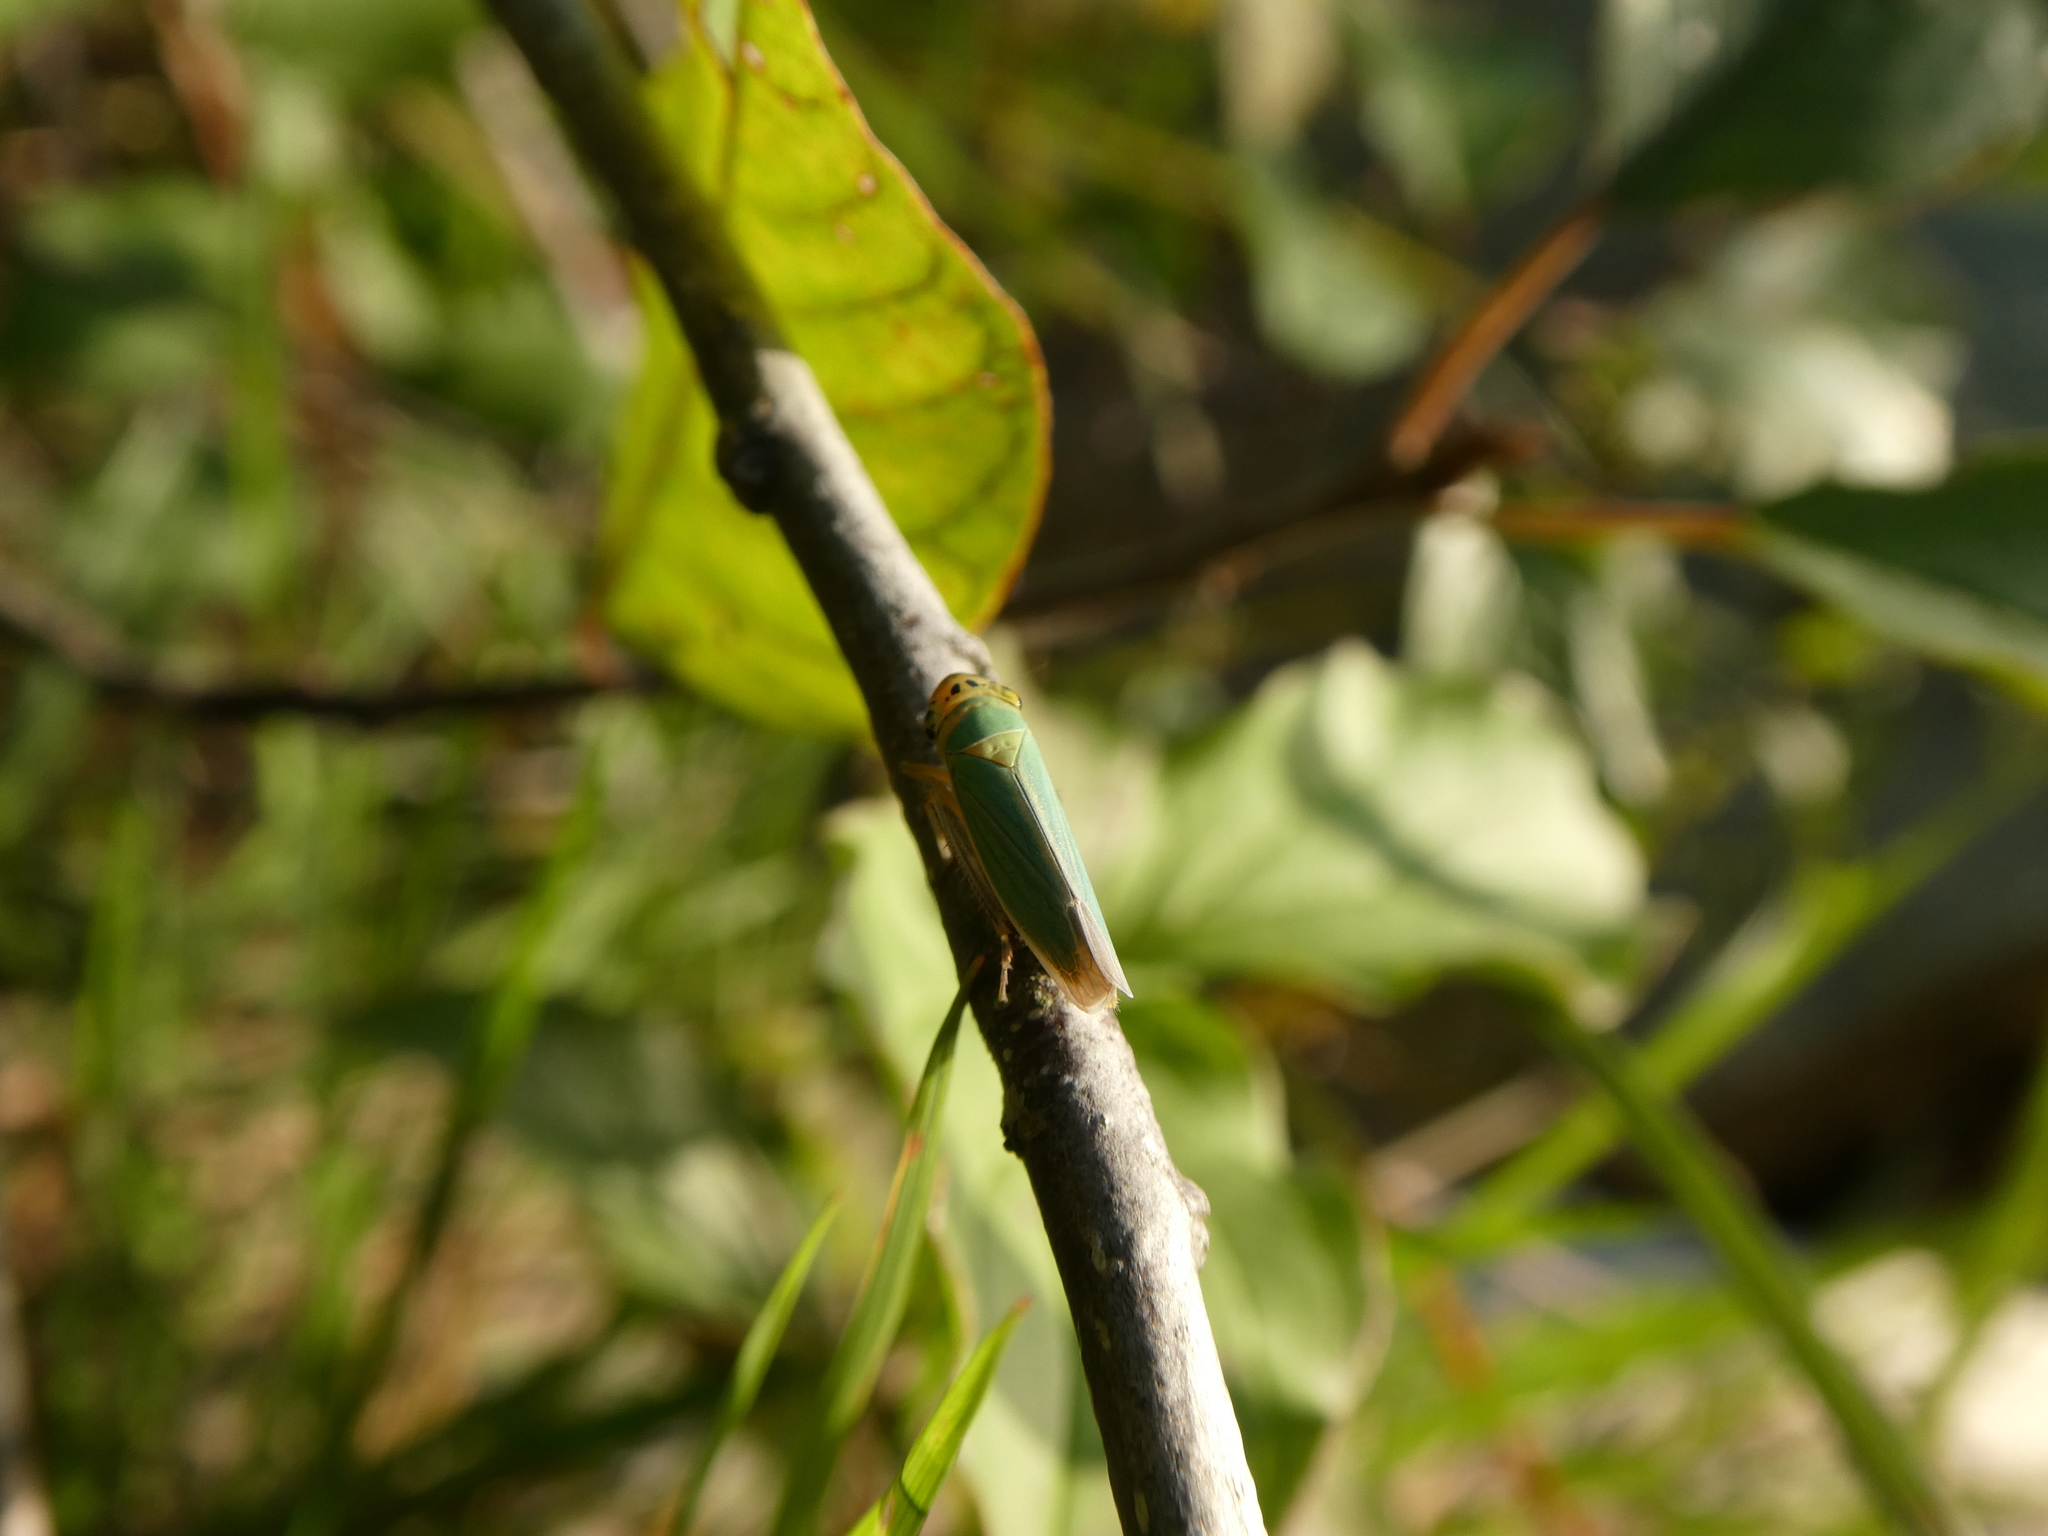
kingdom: Animalia
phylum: Arthropoda
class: Insecta
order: Hemiptera
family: Cicadellidae
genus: Cicadella
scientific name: Cicadella viridis
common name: Leafhopper
